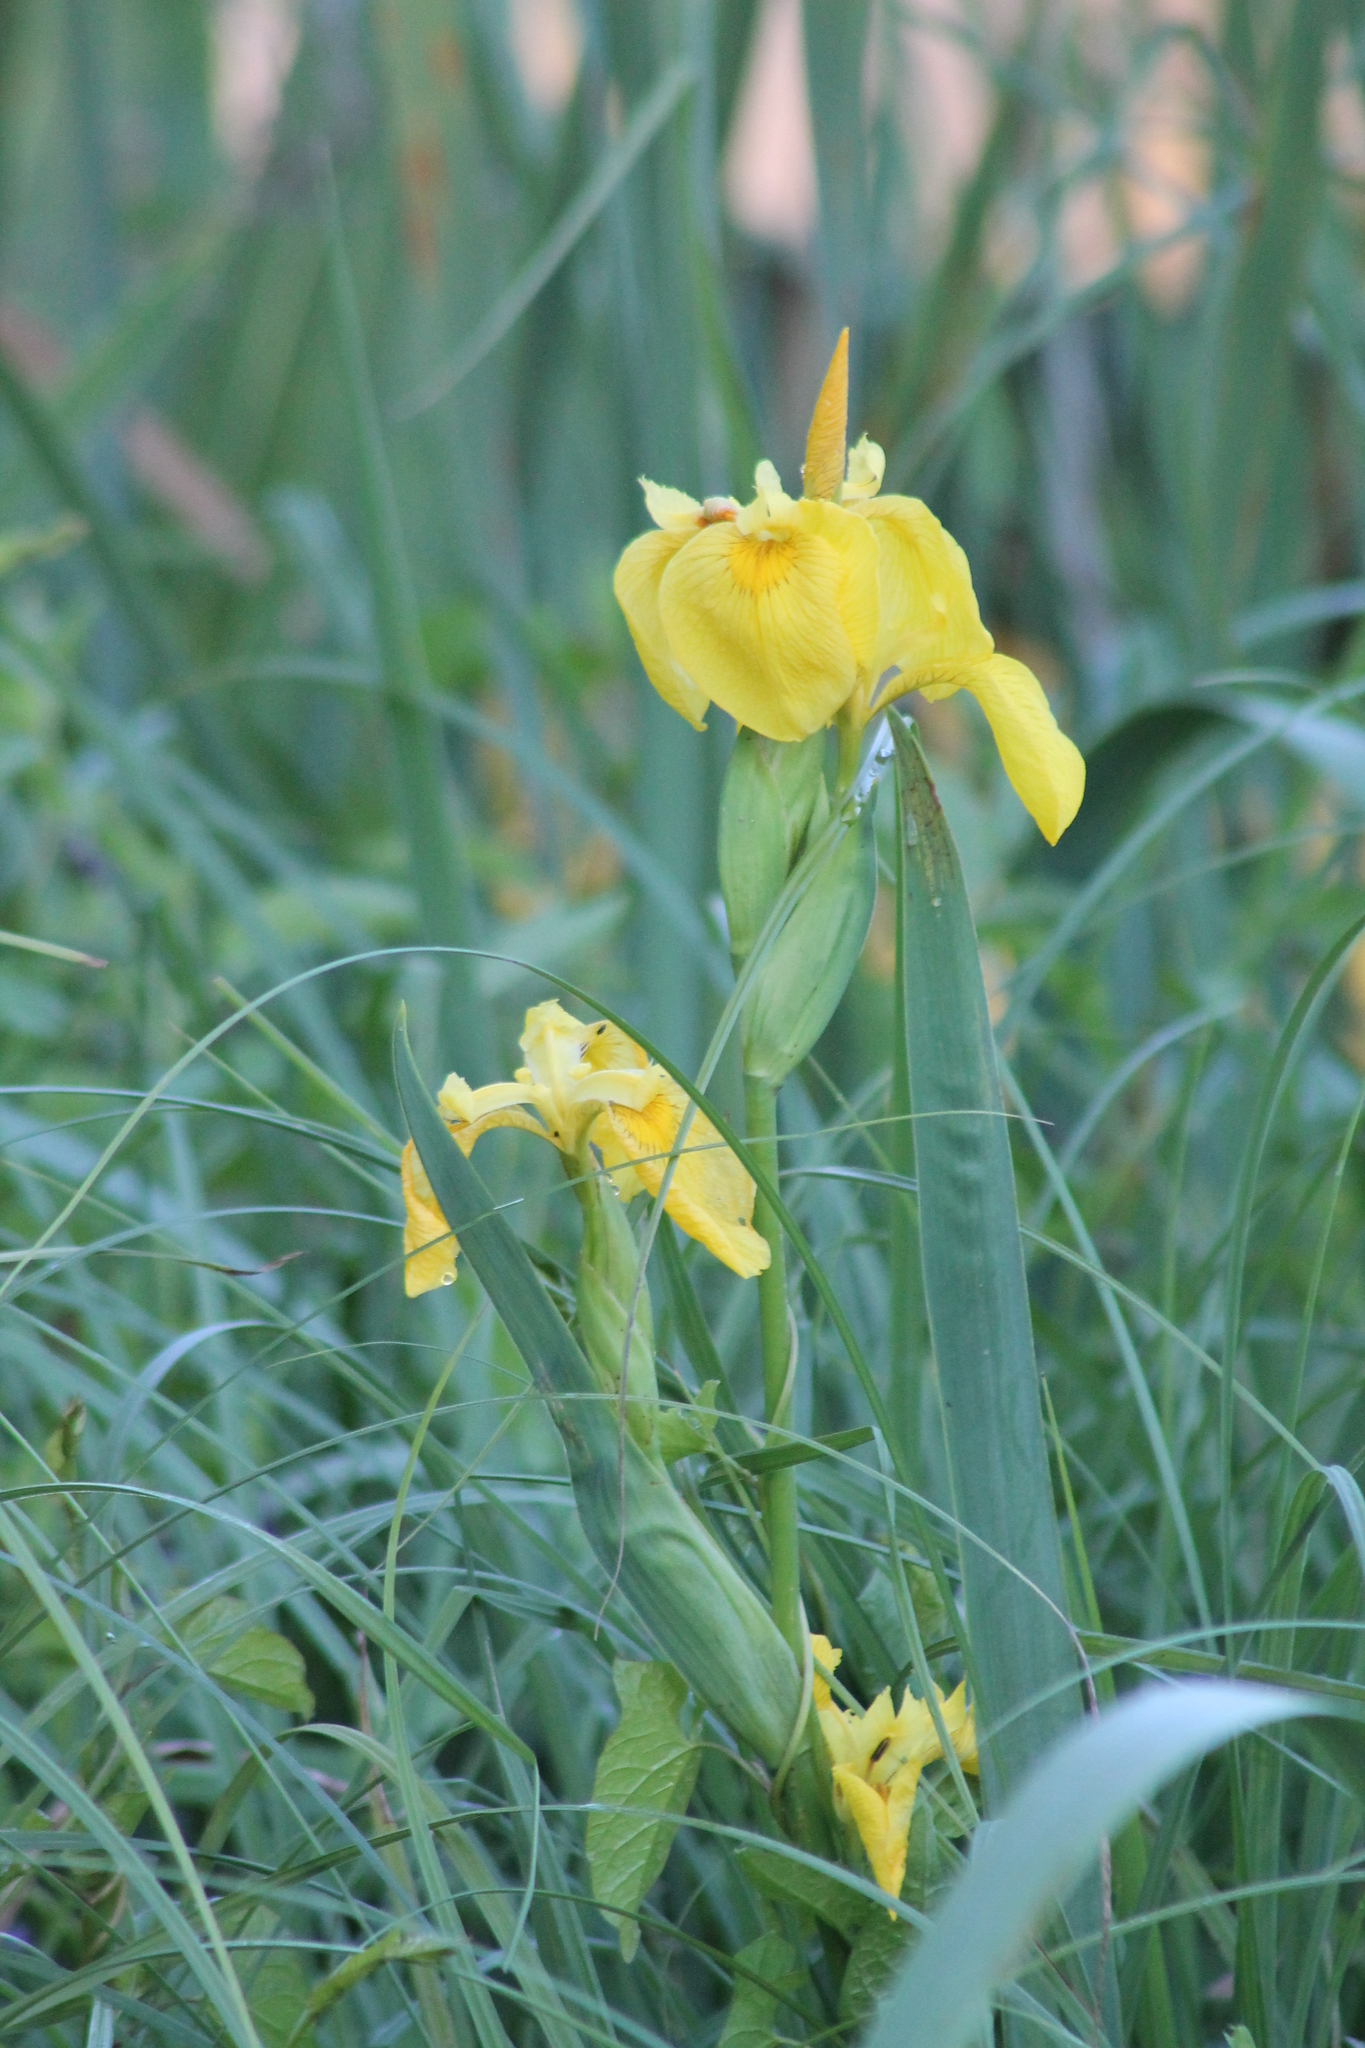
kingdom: Plantae
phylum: Tracheophyta
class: Liliopsida
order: Asparagales
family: Iridaceae
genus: Iris
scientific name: Iris pseudacorus
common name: Yellow flag
